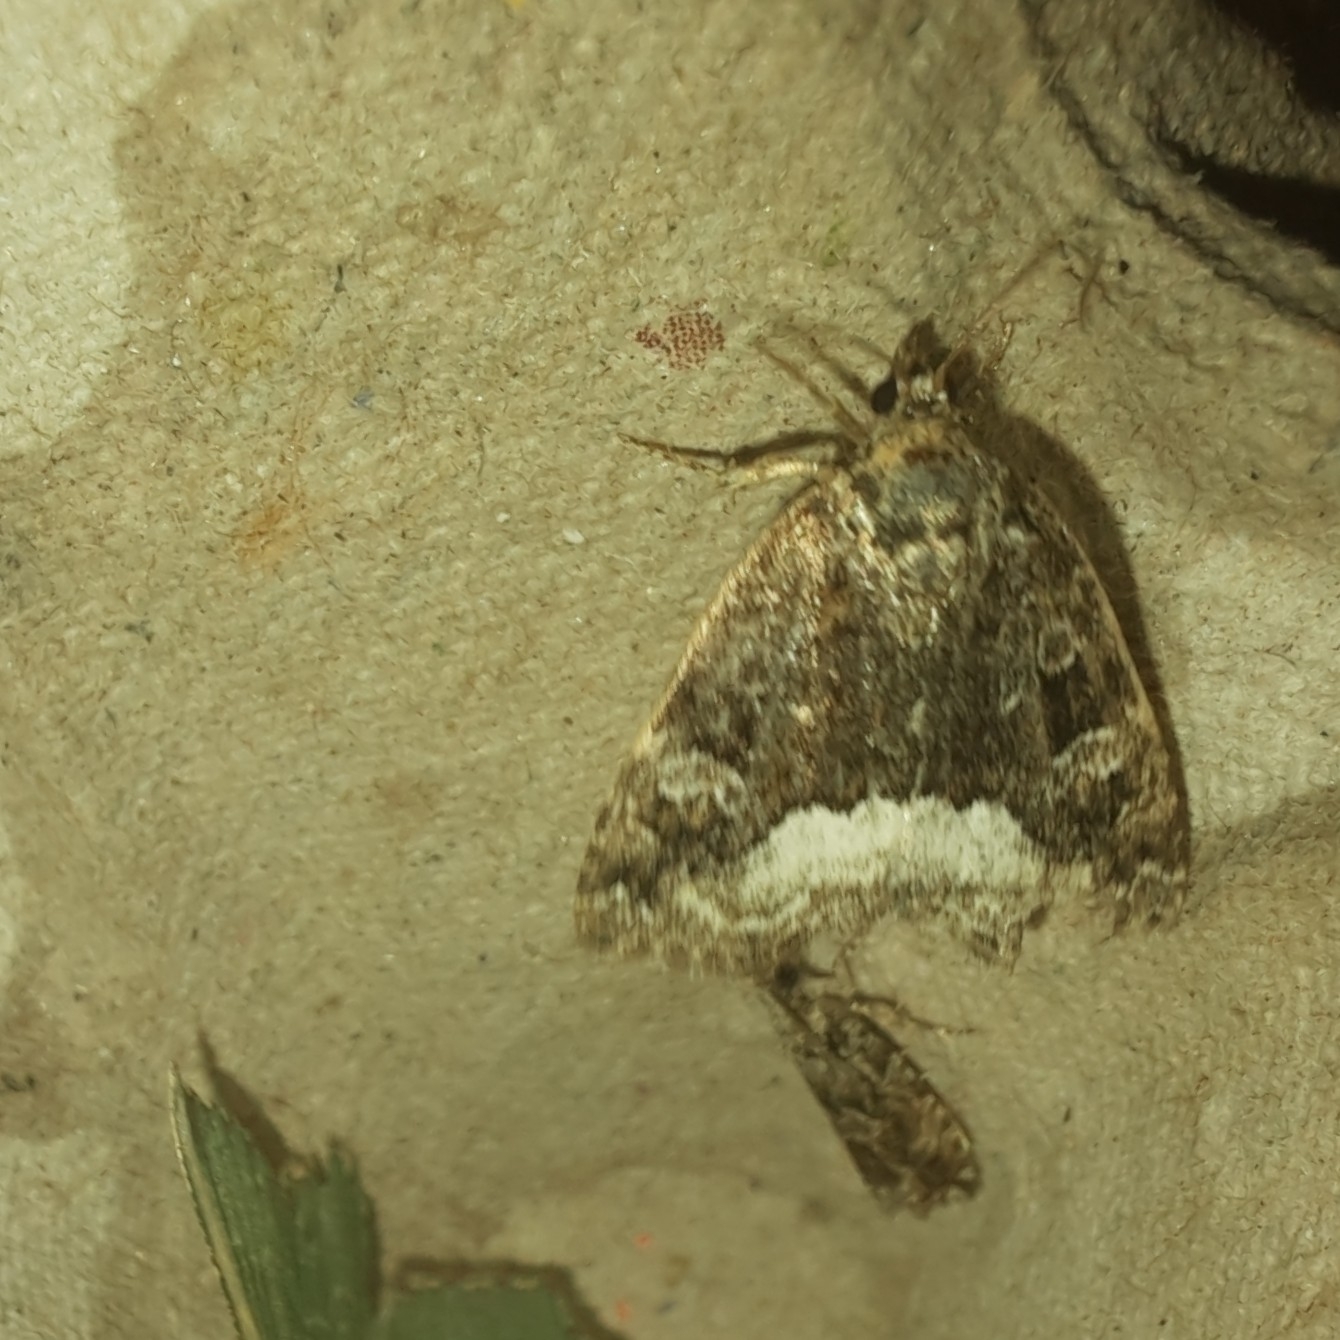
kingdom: Animalia
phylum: Arthropoda
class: Insecta
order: Lepidoptera
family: Noctuidae
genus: Deltote
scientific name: Deltote pygarga
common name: Marbled white spot
